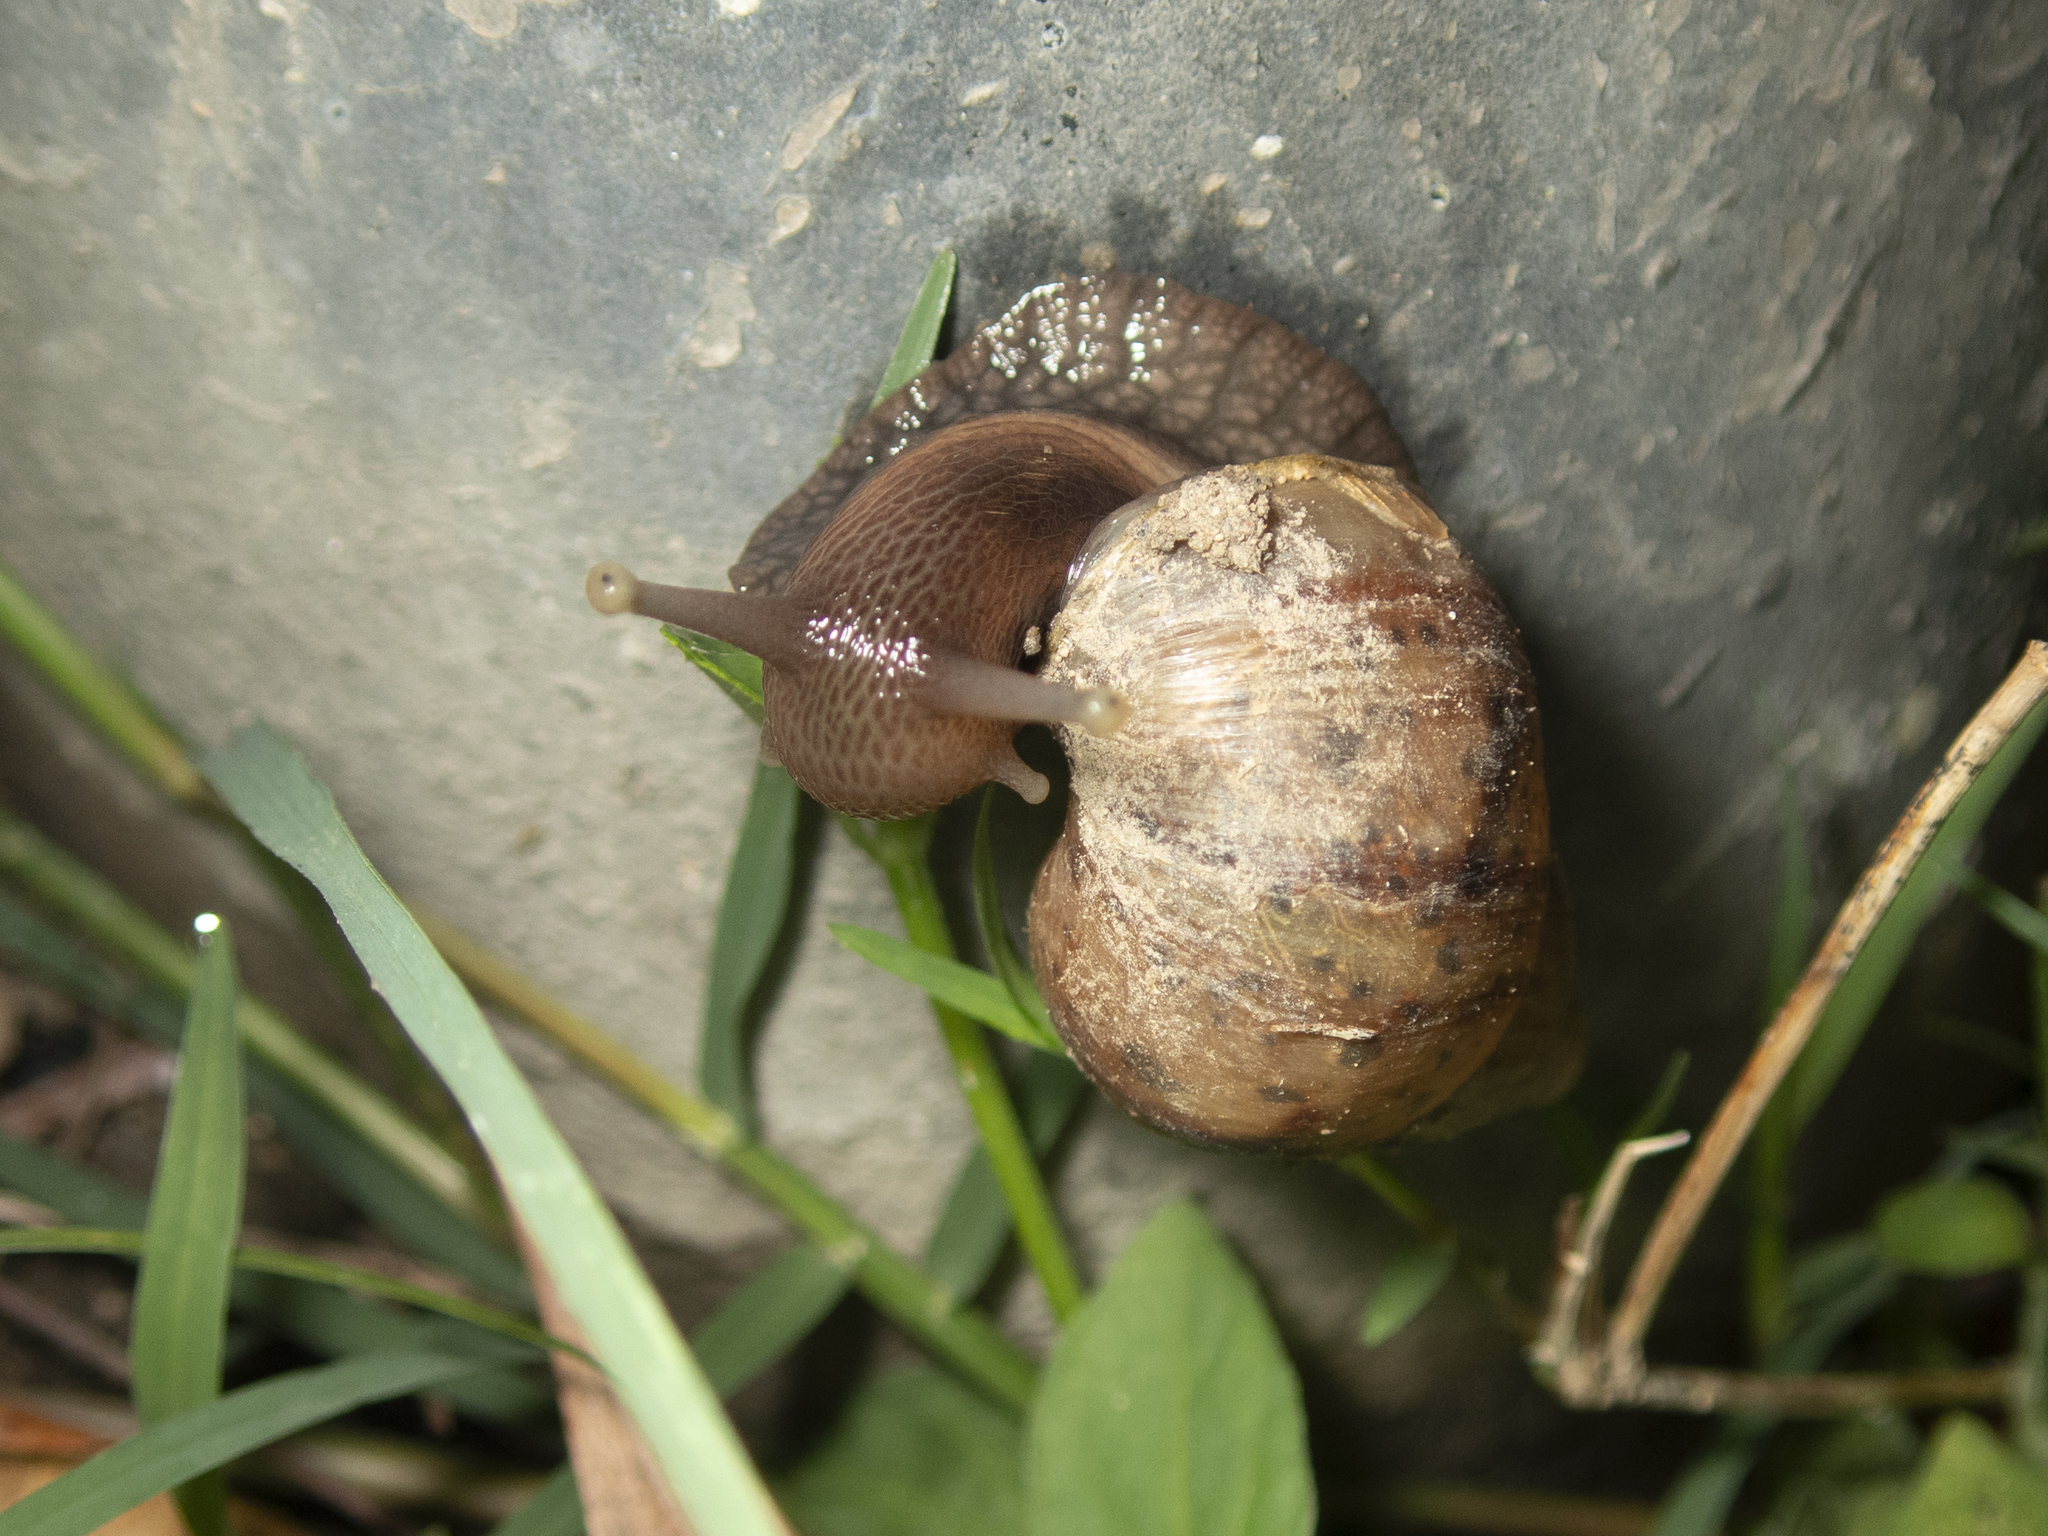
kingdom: Animalia
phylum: Mollusca
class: Gastropoda
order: Stylommatophora
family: Achatinidae
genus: Lissachatina
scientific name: Lissachatina fulica
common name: Giant african snail
